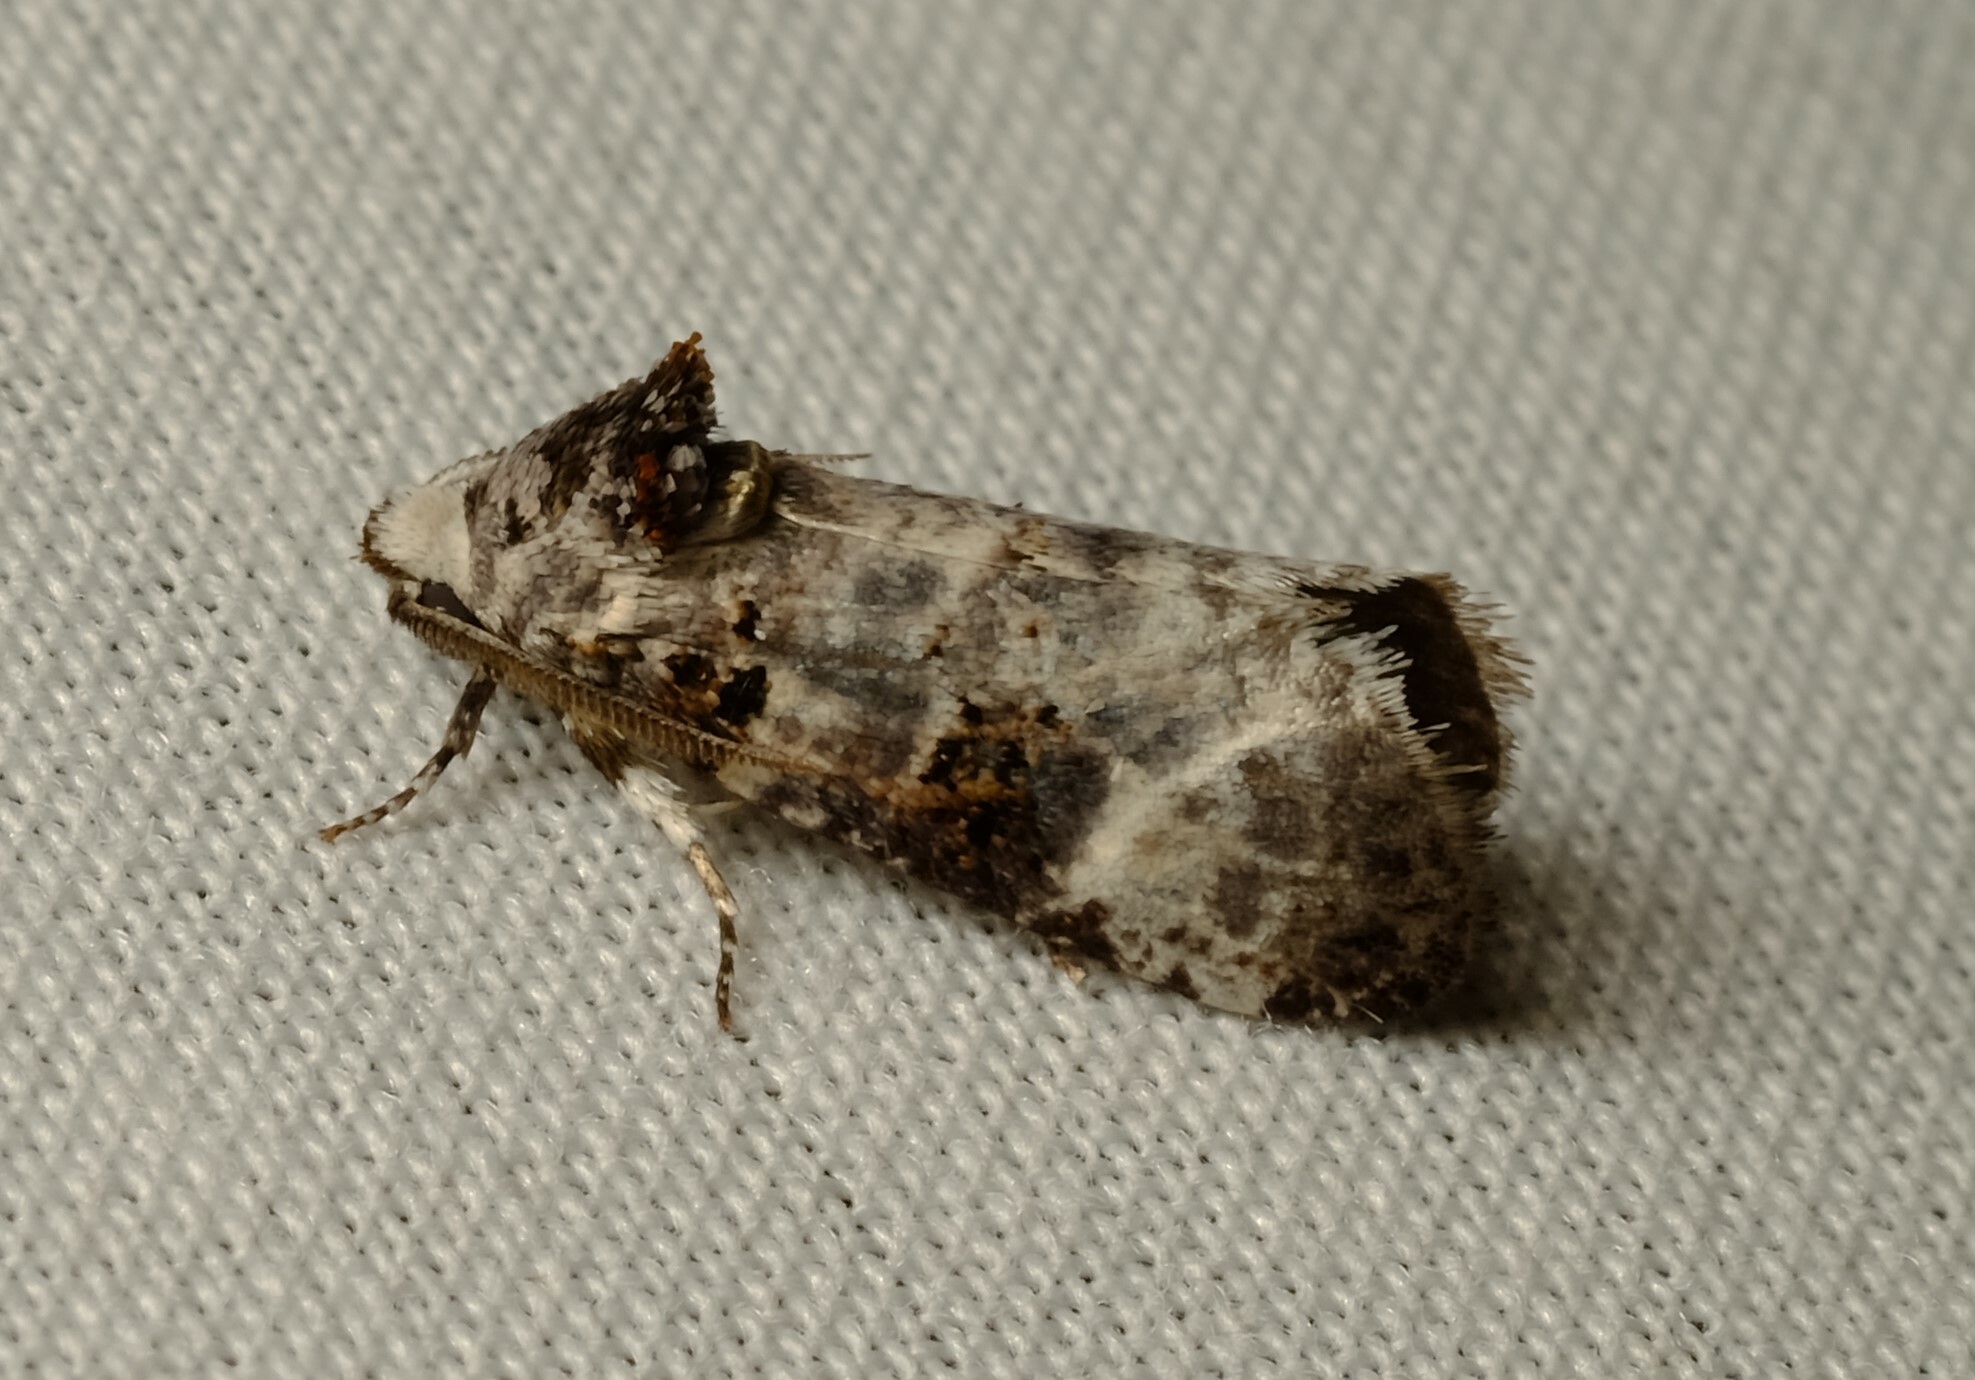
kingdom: Animalia
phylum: Arthropoda
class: Insecta
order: Lepidoptera
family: Cossidae
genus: Idioses
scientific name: Idioses littleri
